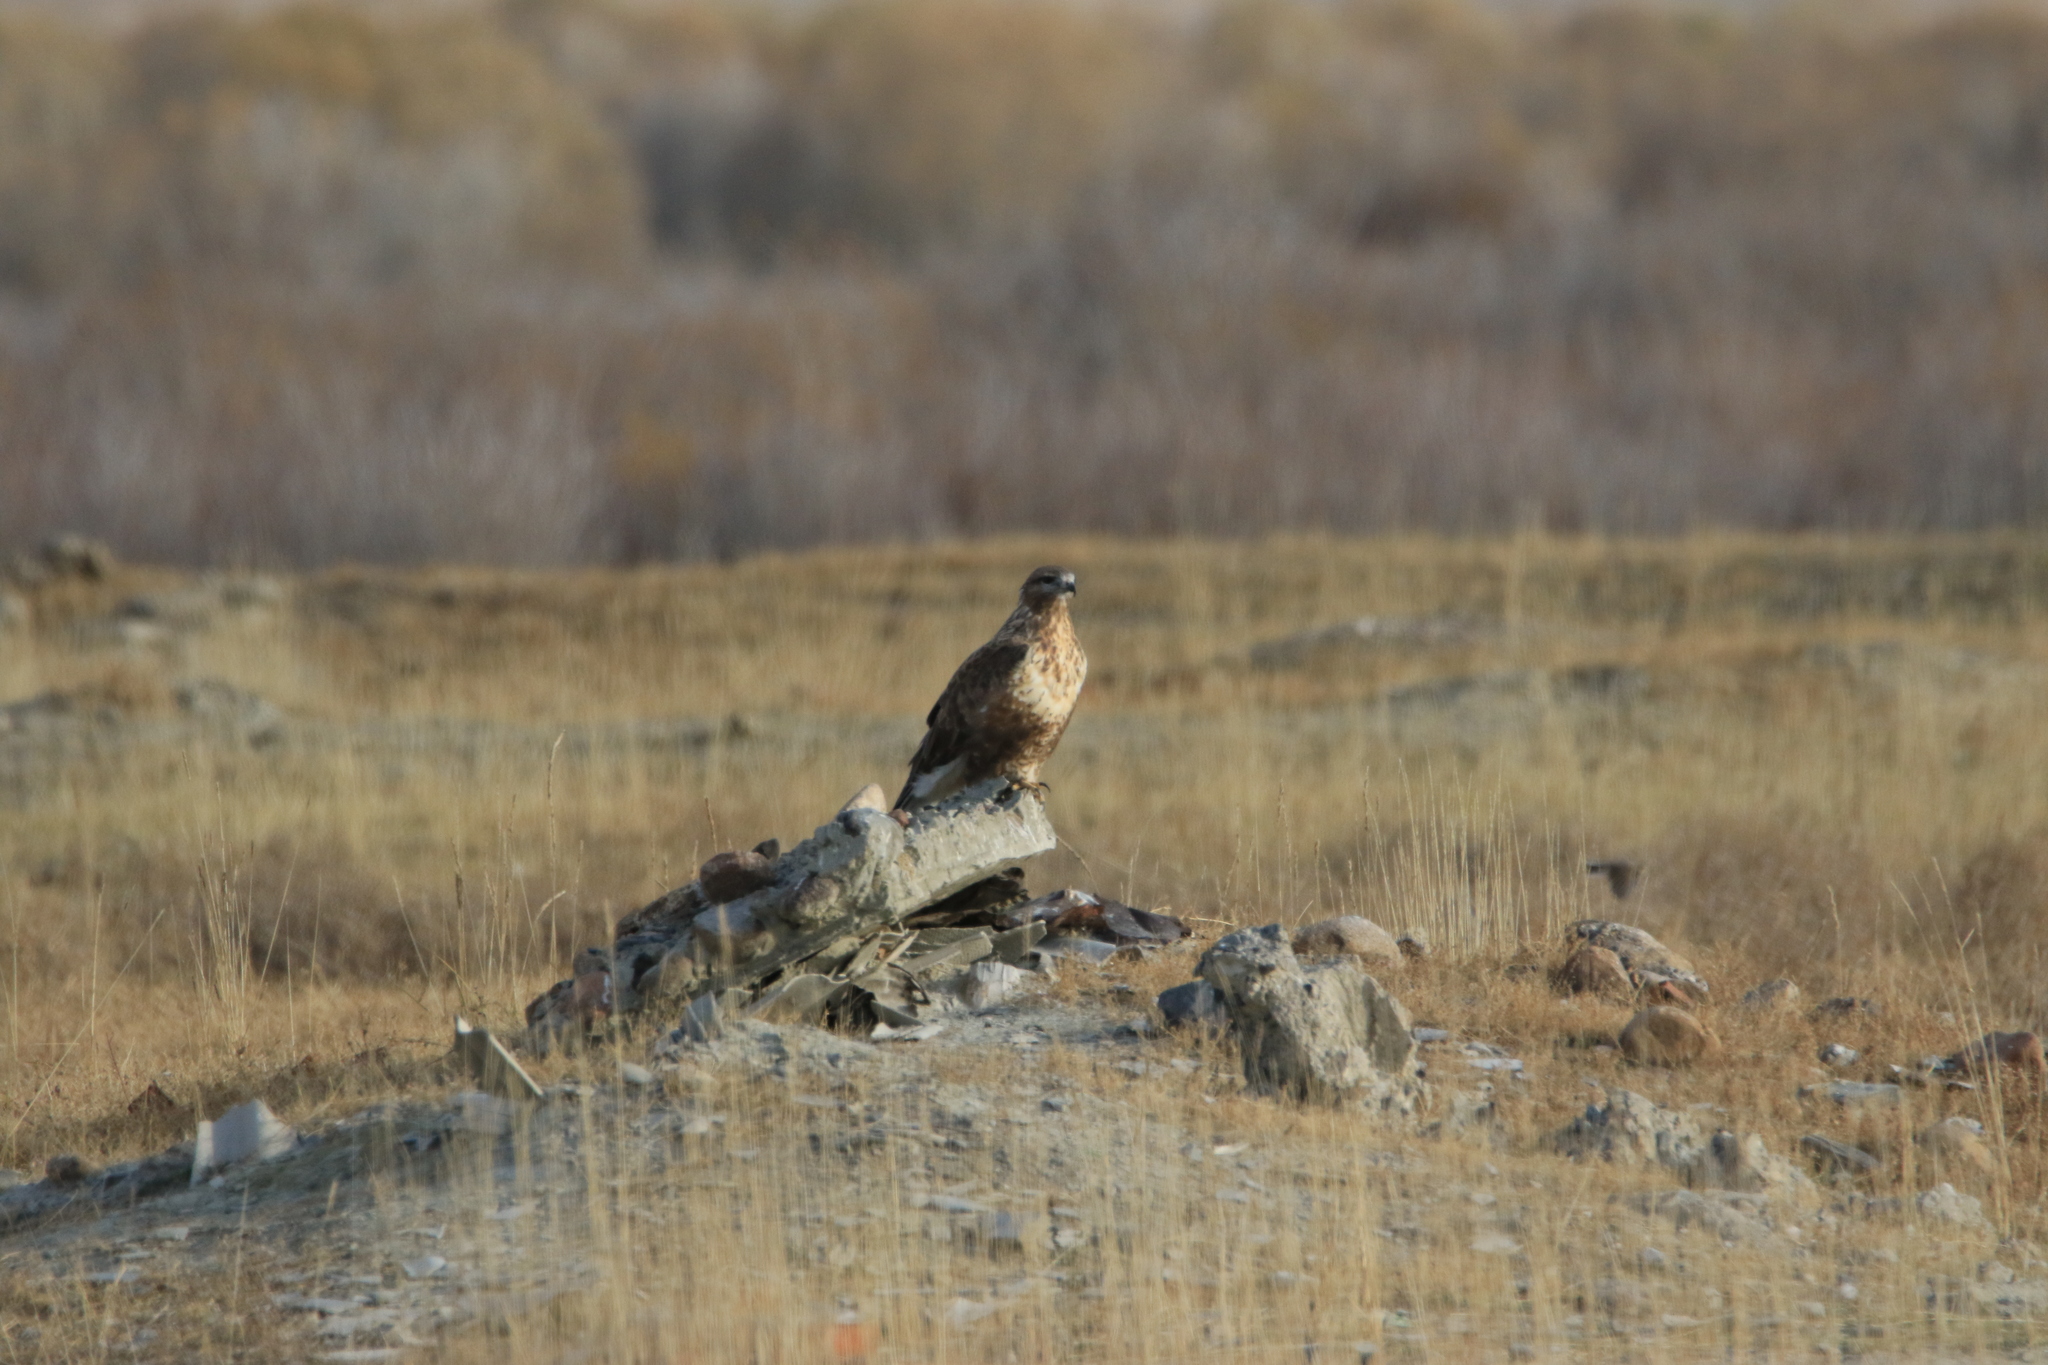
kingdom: Animalia
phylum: Chordata
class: Aves
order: Accipitriformes
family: Accipitridae
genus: Buteo
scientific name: Buteo hemilasius
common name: Upland buzzard
